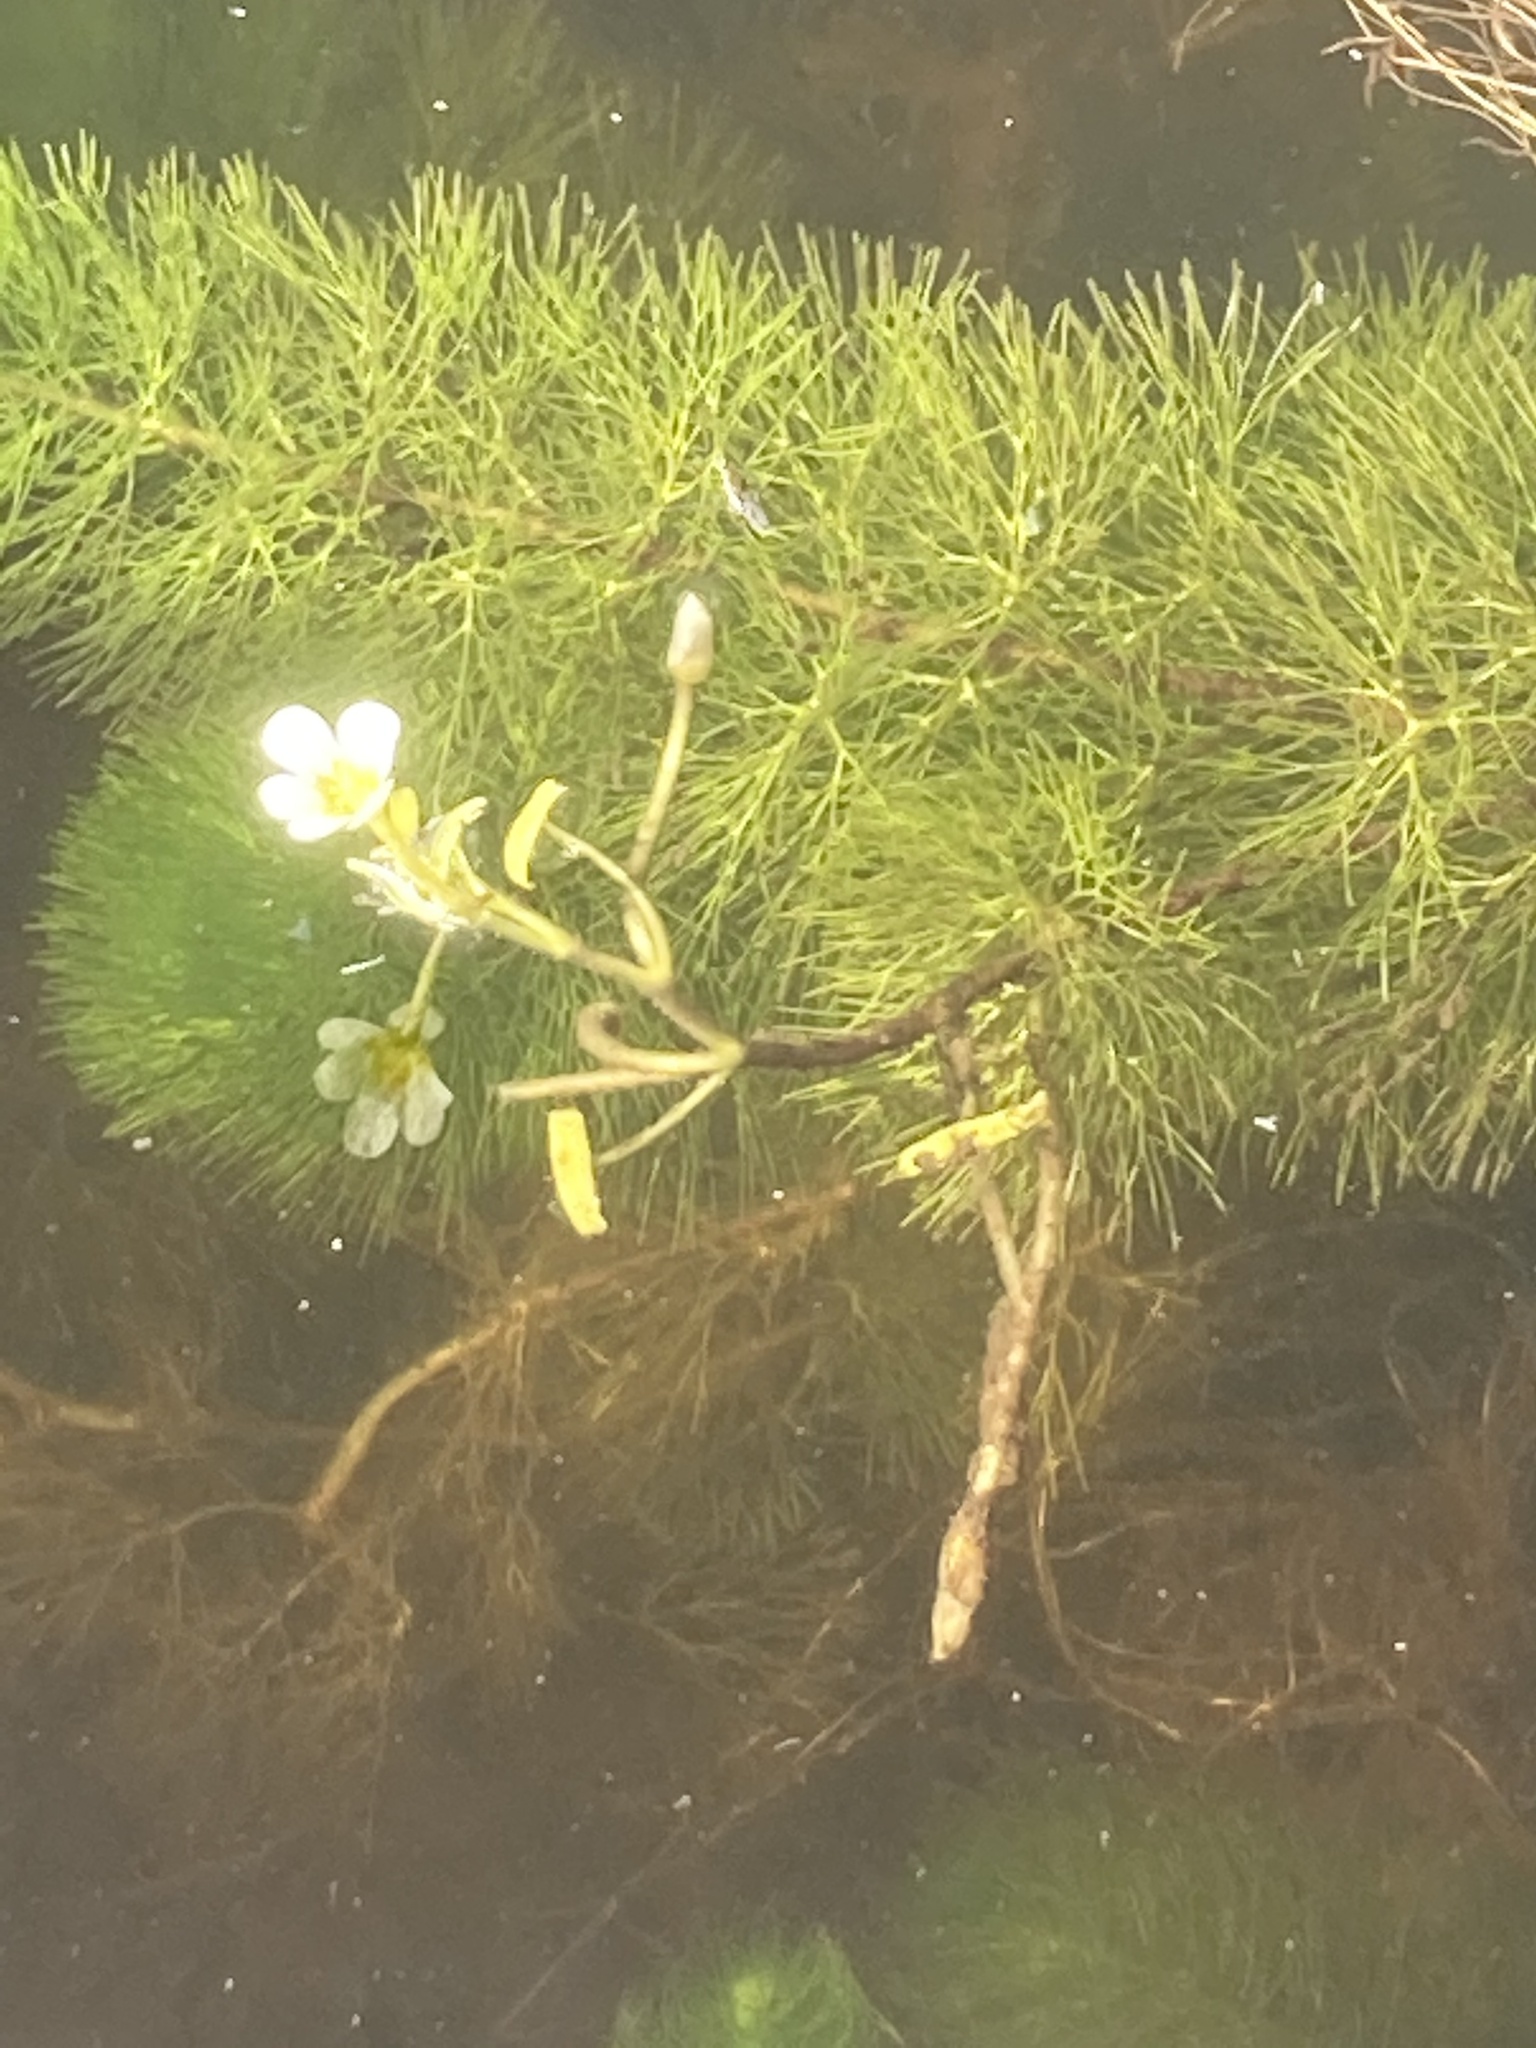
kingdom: Plantae
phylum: Tracheophyta
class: Magnoliopsida
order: Nymphaeales
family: Cabombaceae
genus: Cabomba
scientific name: Cabomba caroliniana
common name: Fanwort
